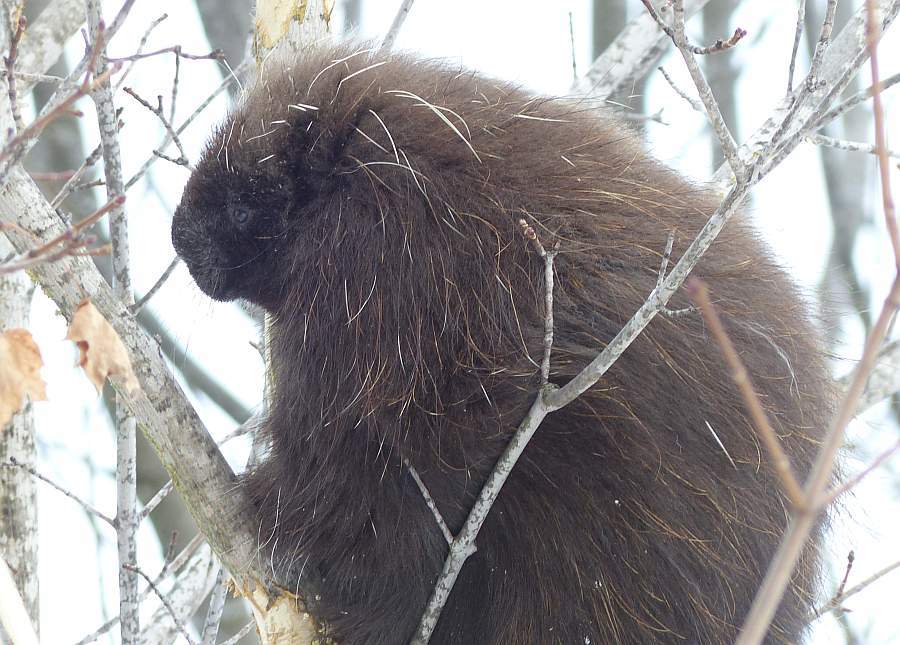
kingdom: Animalia
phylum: Chordata
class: Mammalia
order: Rodentia
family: Erethizontidae
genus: Erethizon
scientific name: Erethizon dorsatus
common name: North american porcupine
